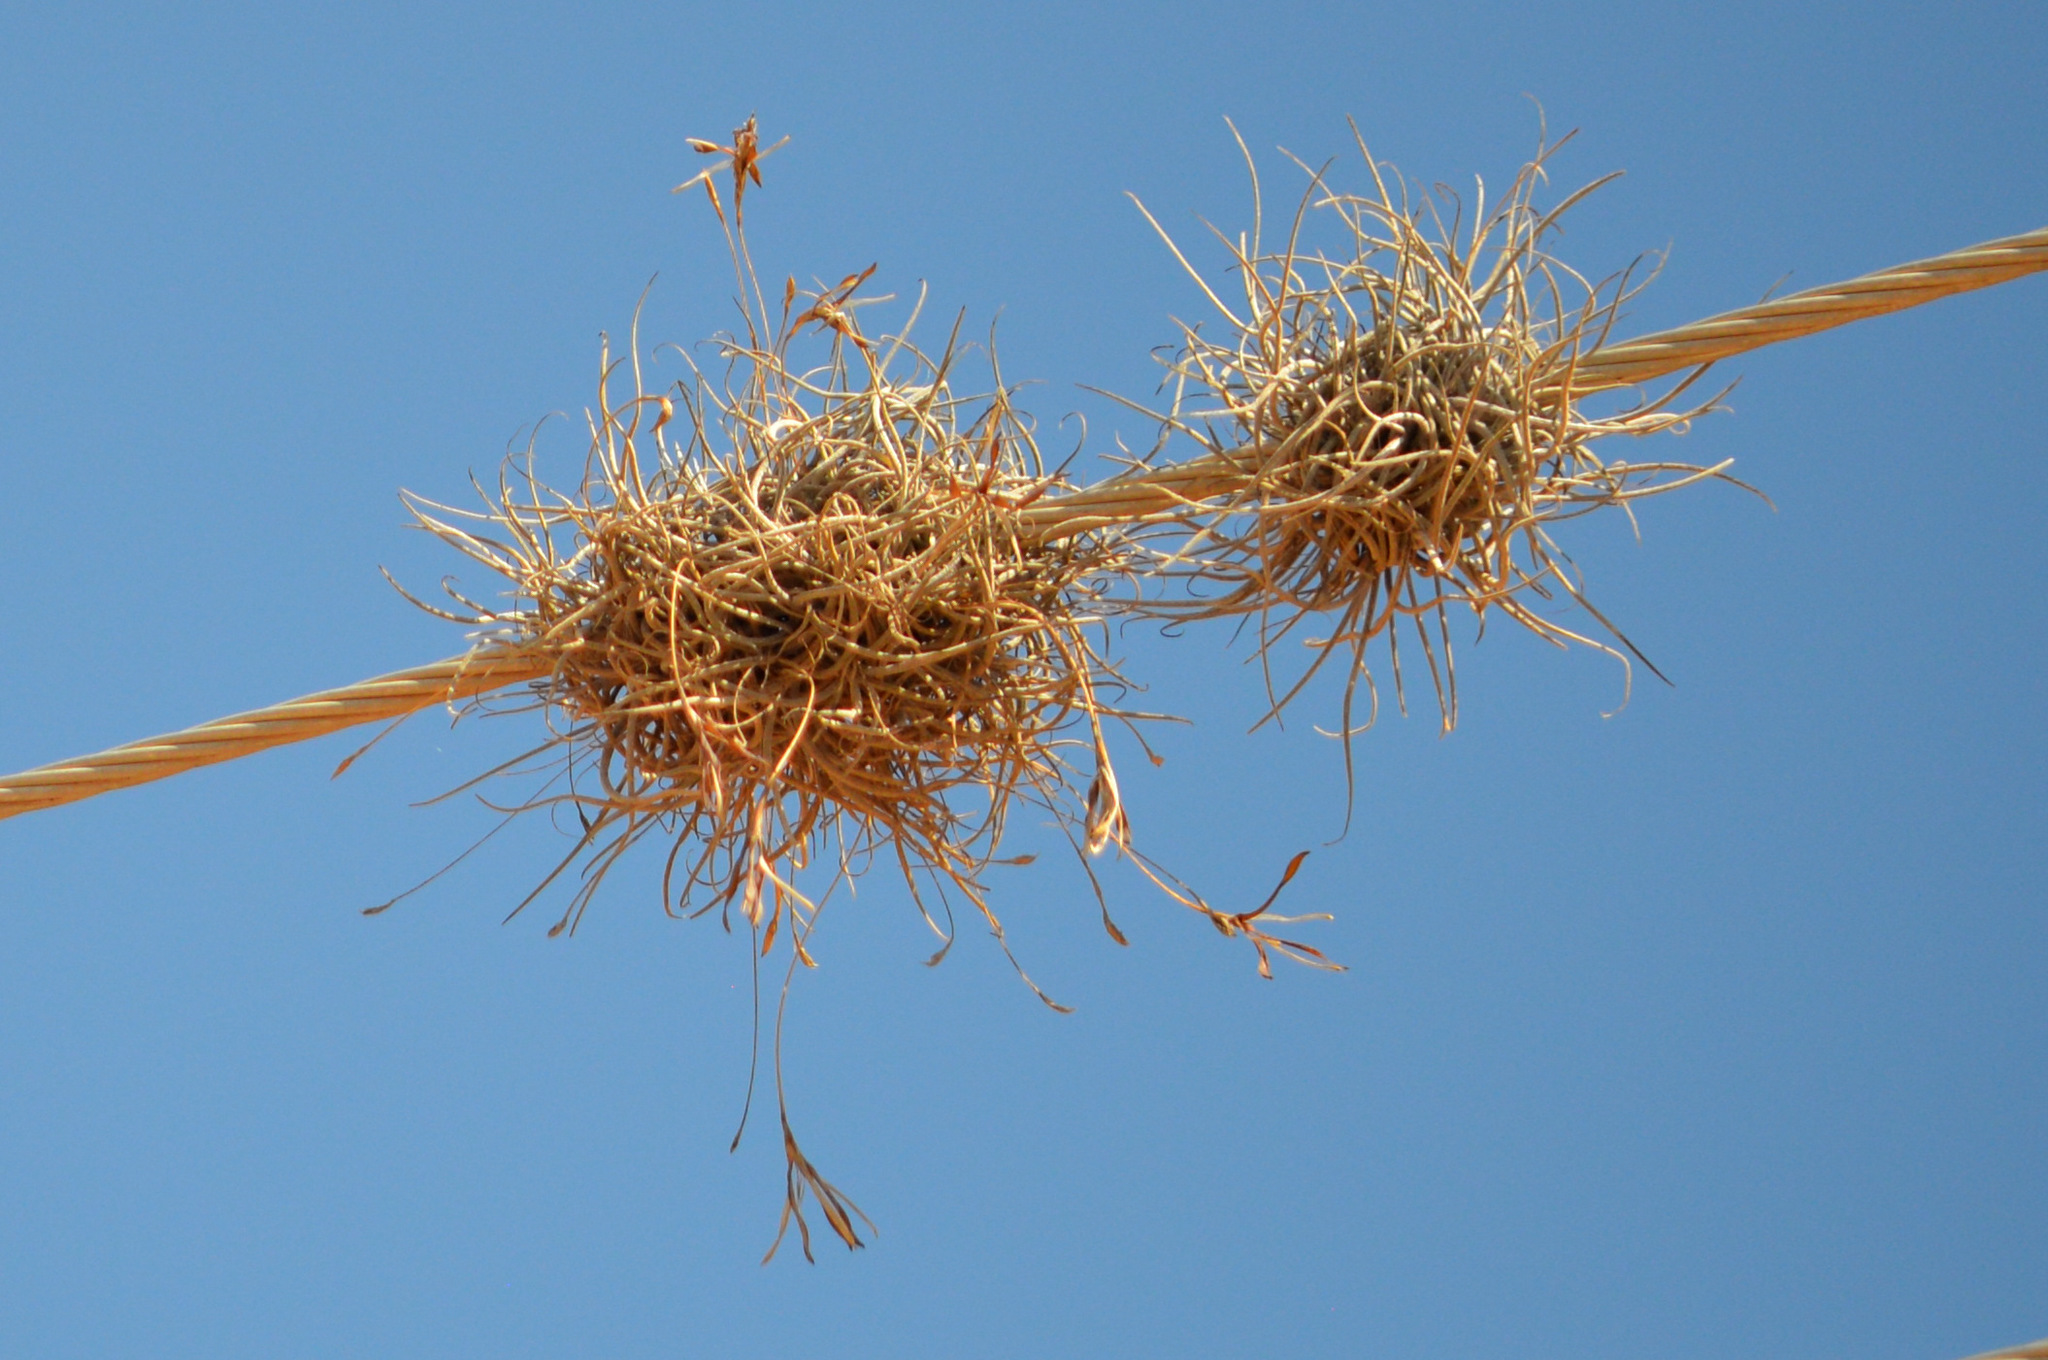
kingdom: Plantae
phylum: Tracheophyta
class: Liliopsida
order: Poales
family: Bromeliaceae
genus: Tillandsia
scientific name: Tillandsia recurvata
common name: Small ballmoss
